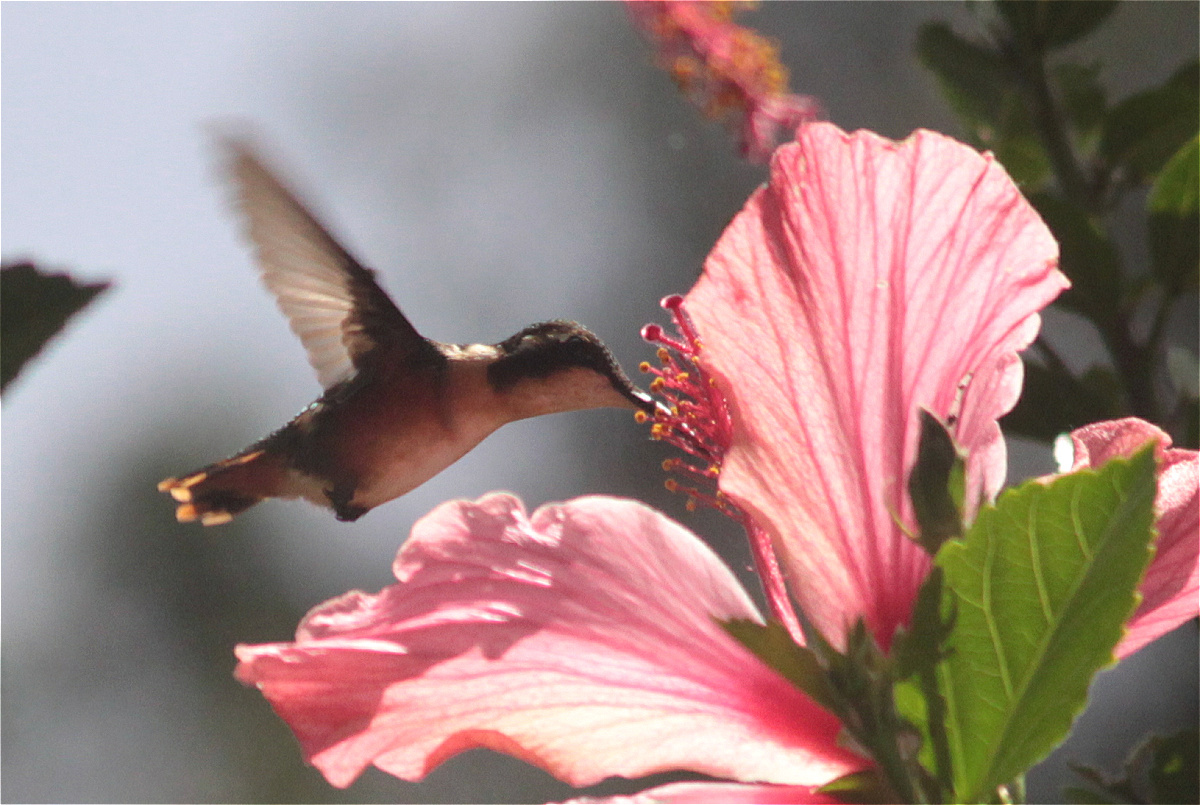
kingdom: Animalia
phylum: Chordata
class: Aves
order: Apodiformes
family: Trochilidae
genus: Chaetocercus
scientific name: Chaetocercus mulsant
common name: White-bellied woodstar
